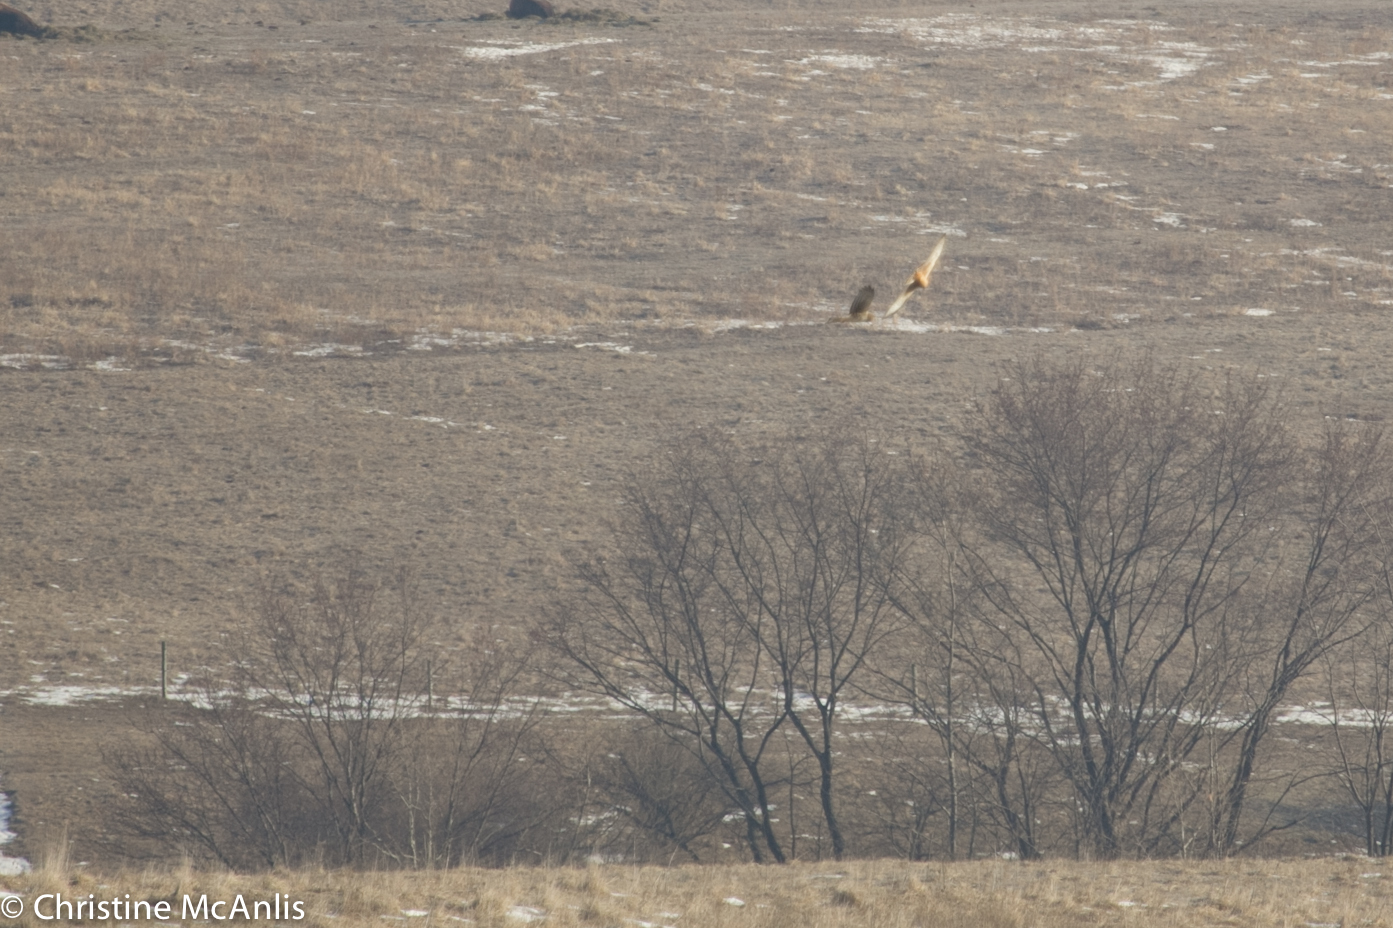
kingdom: Animalia
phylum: Chordata
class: Aves
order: Accipitriformes
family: Accipitridae
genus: Circus
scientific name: Circus cyaneus
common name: Hen harrier
